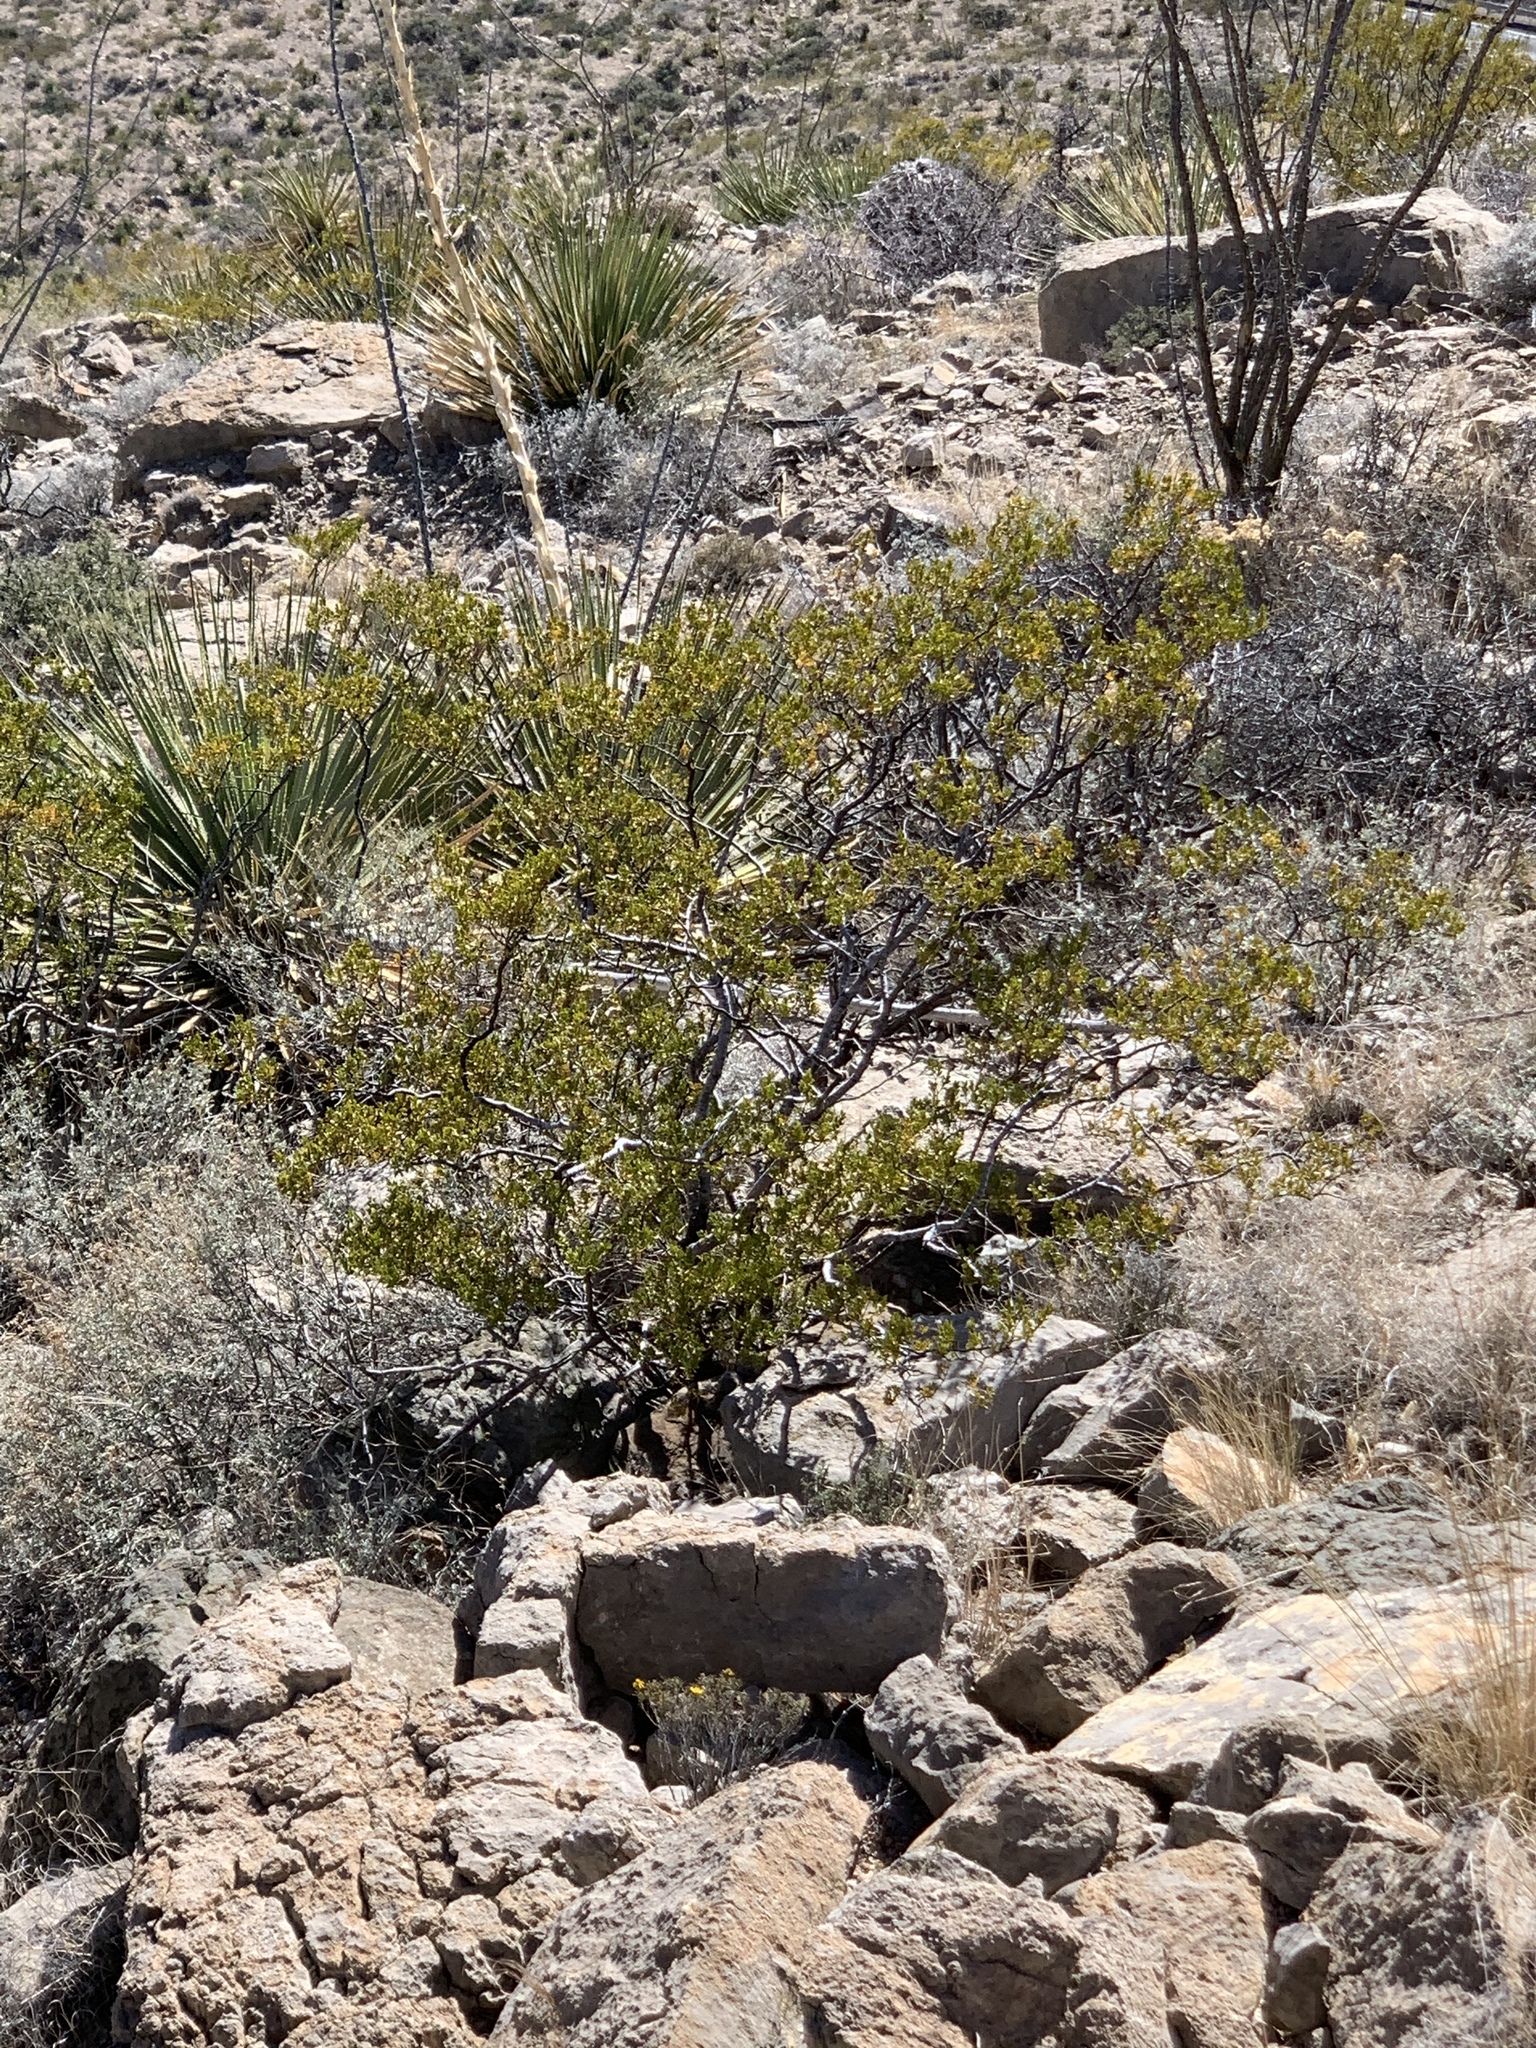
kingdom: Plantae
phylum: Tracheophyta
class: Magnoliopsida
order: Zygophyllales
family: Zygophyllaceae
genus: Larrea
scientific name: Larrea tridentata
